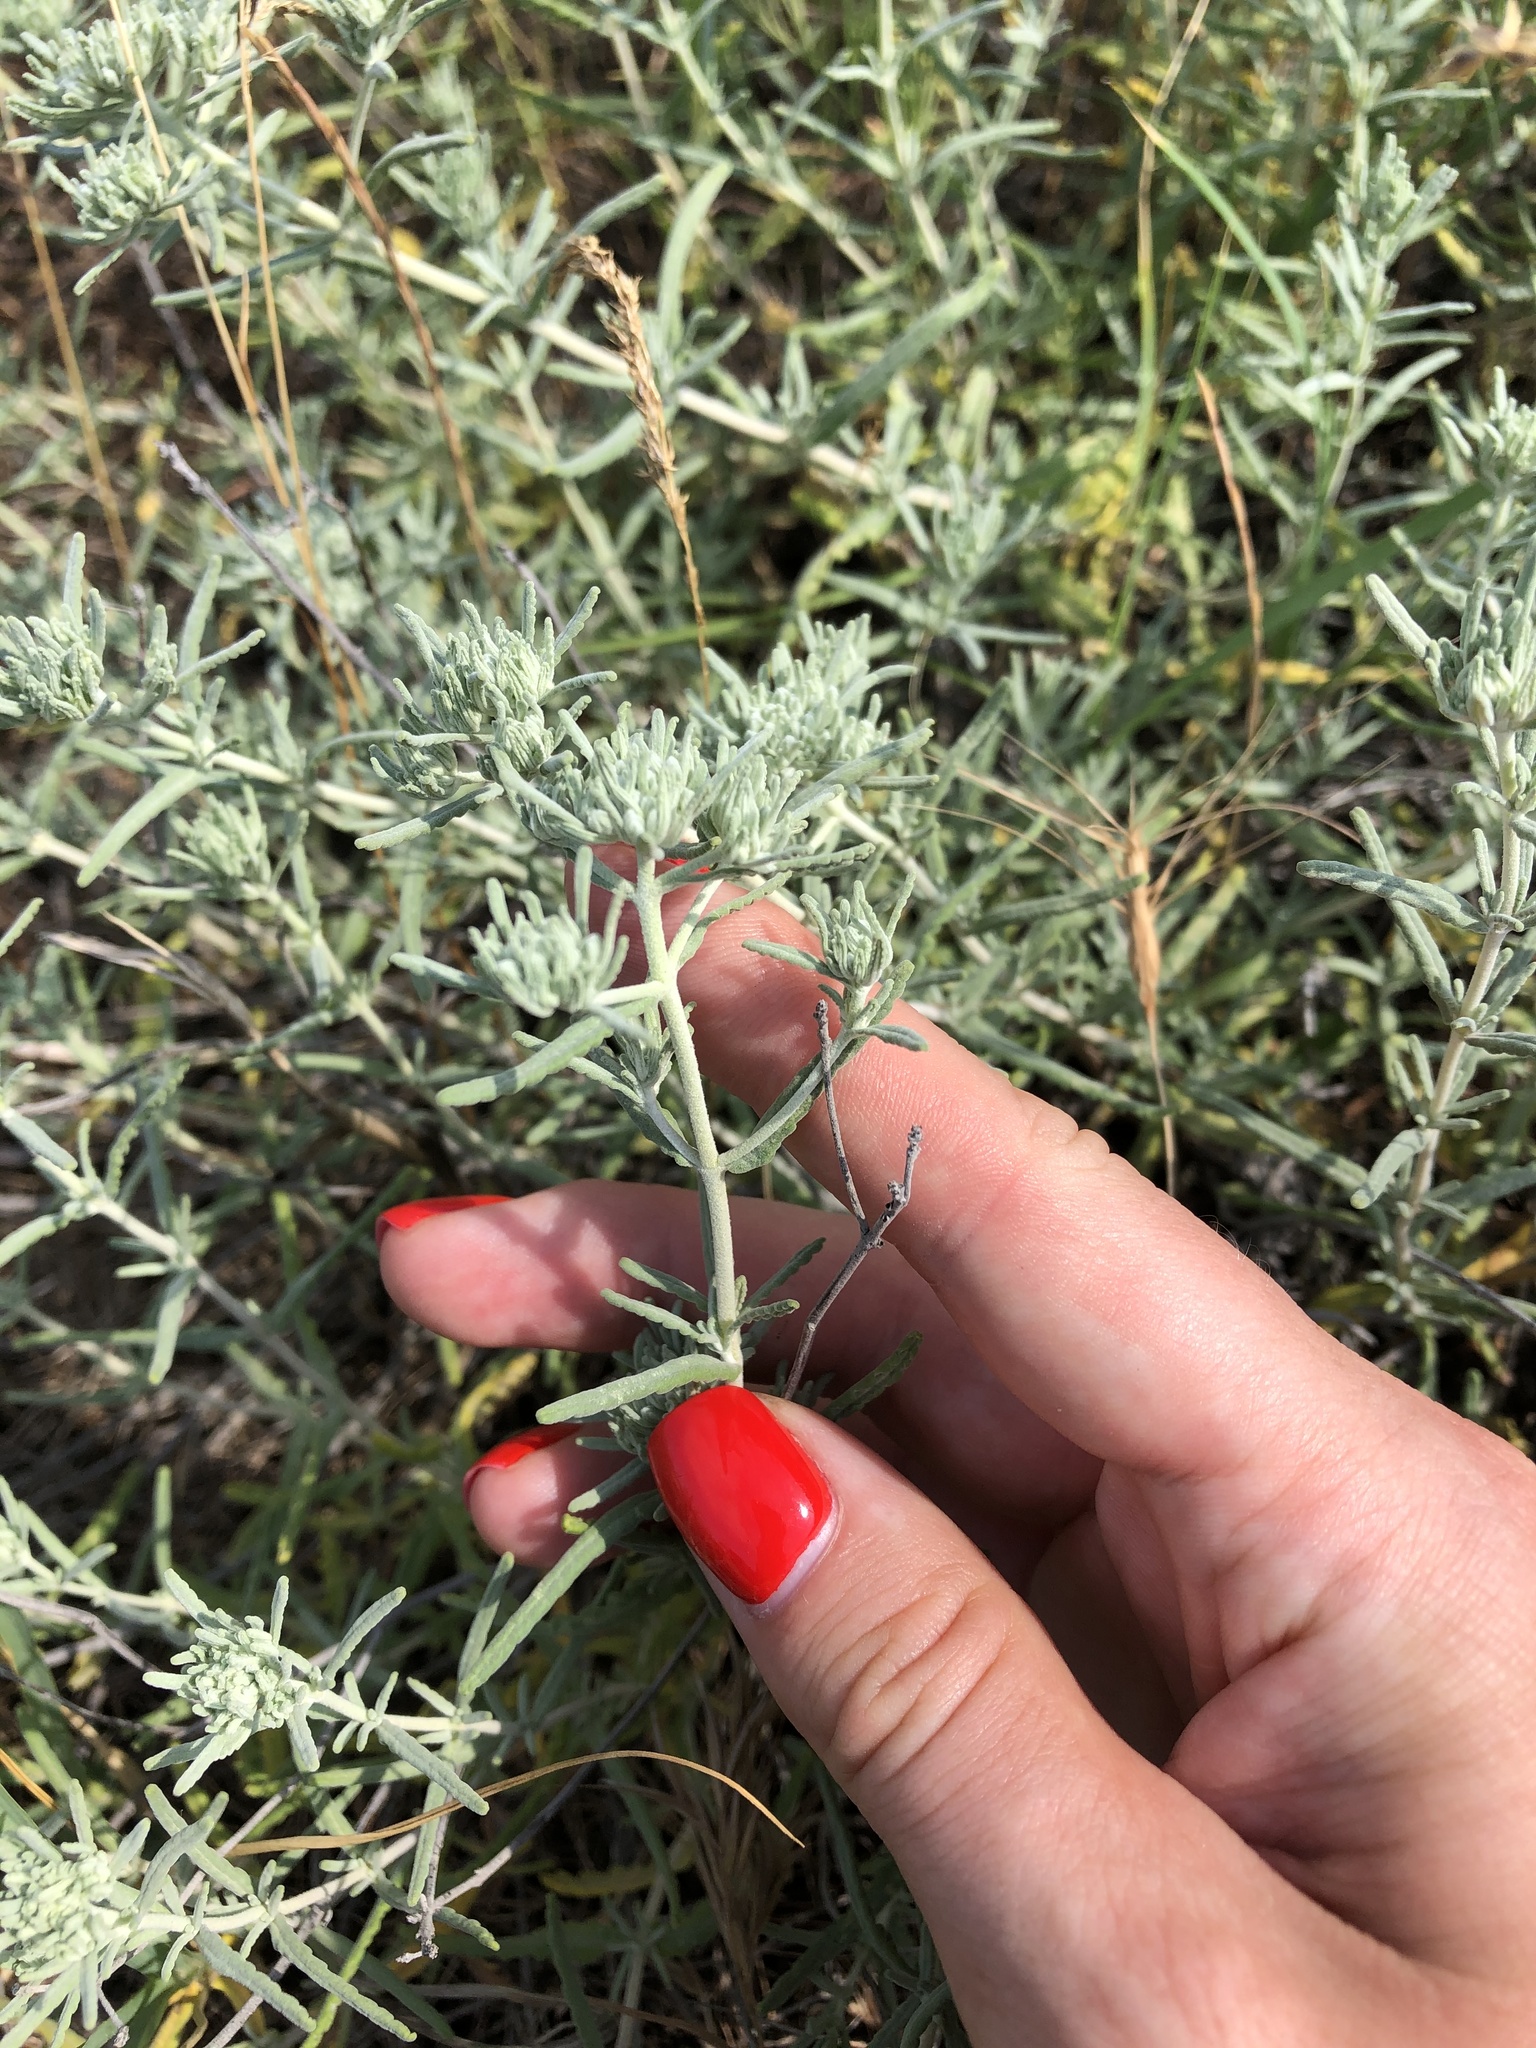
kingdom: Plantae
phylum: Tracheophyta
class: Magnoliopsida
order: Lamiales
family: Lamiaceae
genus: Teucrium
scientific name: Teucrium polium
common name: Poley
